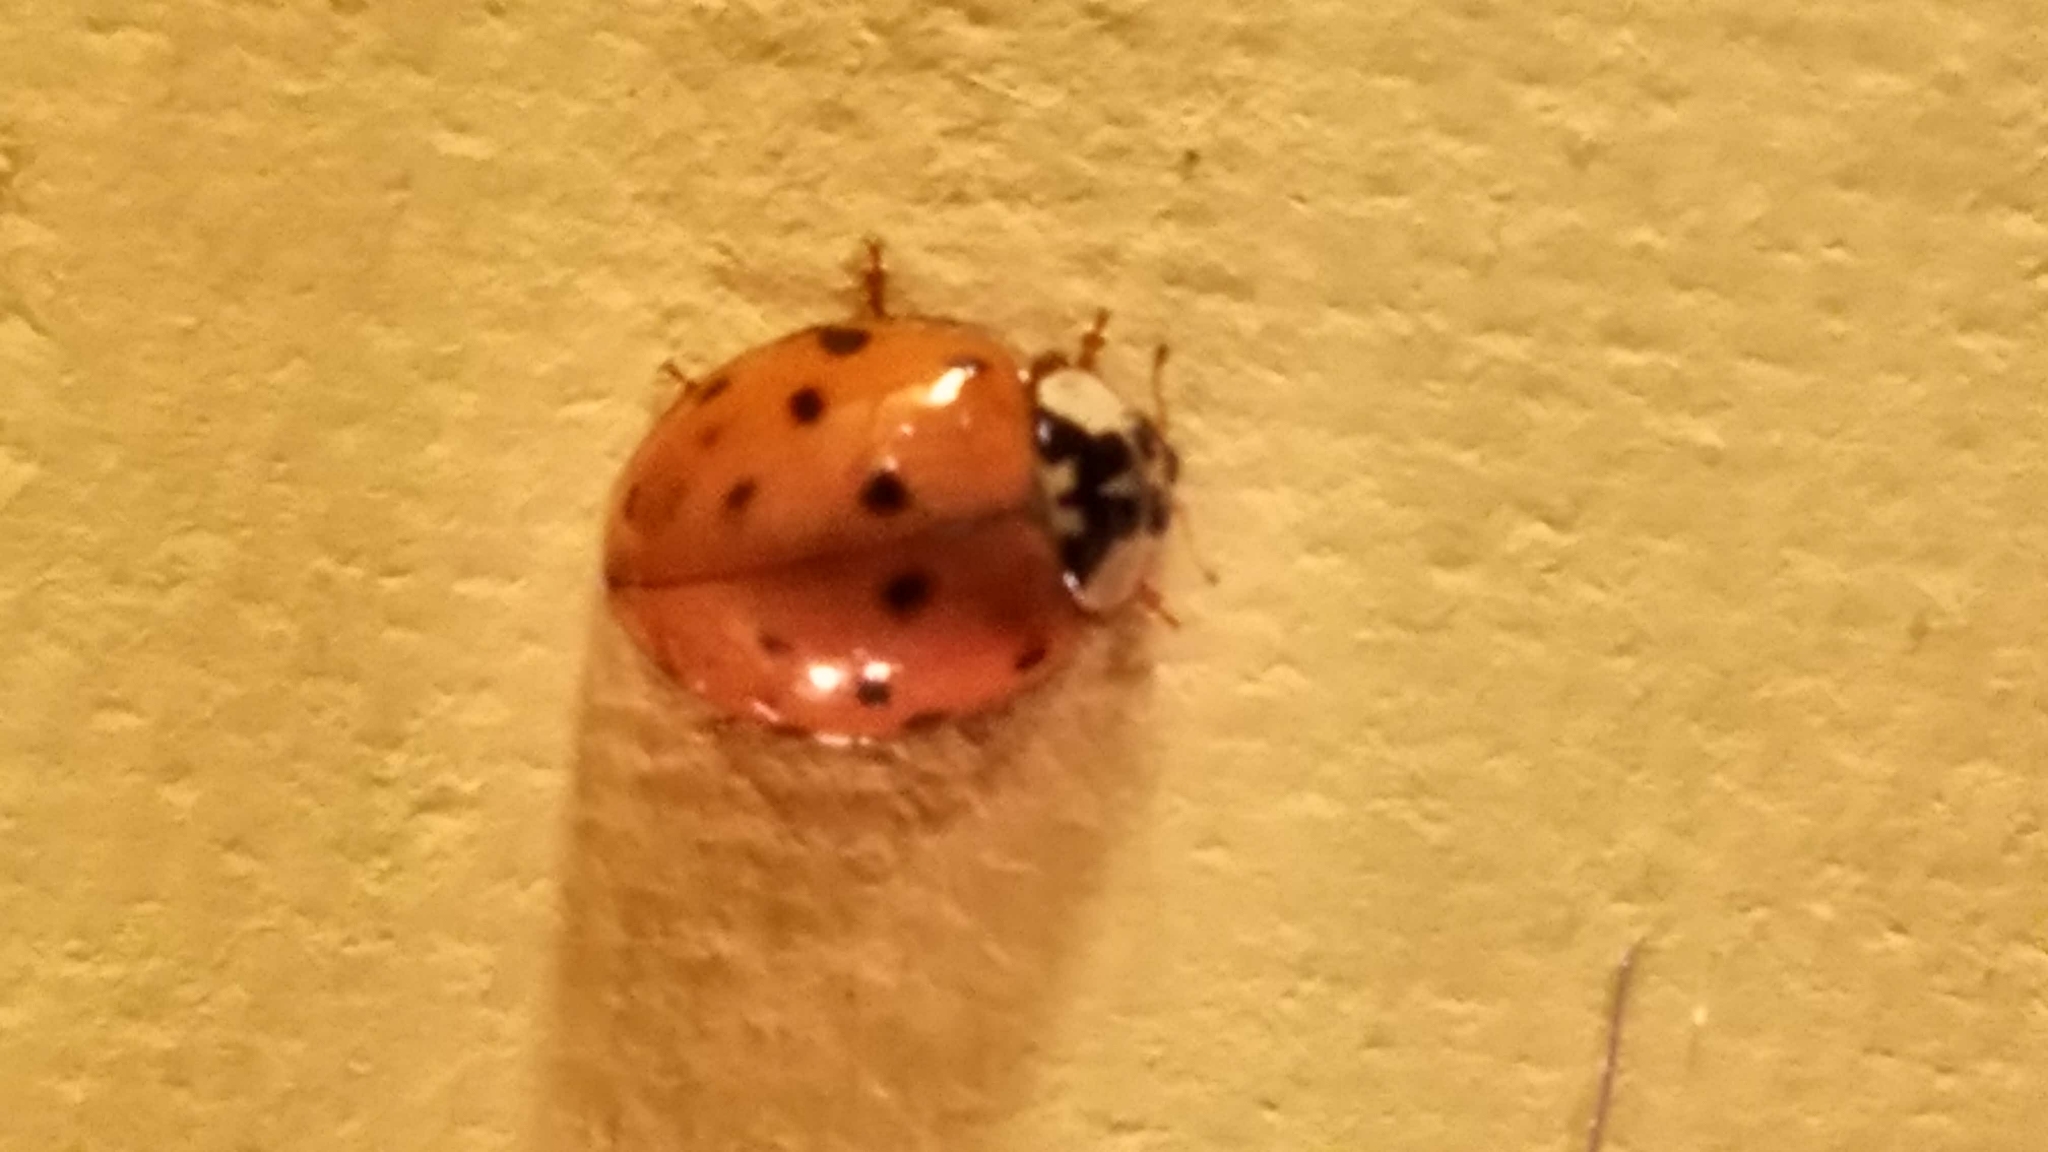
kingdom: Animalia
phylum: Arthropoda
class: Insecta
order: Coleoptera
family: Coccinellidae
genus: Harmonia
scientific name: Harmonia axyridis
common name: Harlequin ladybird
